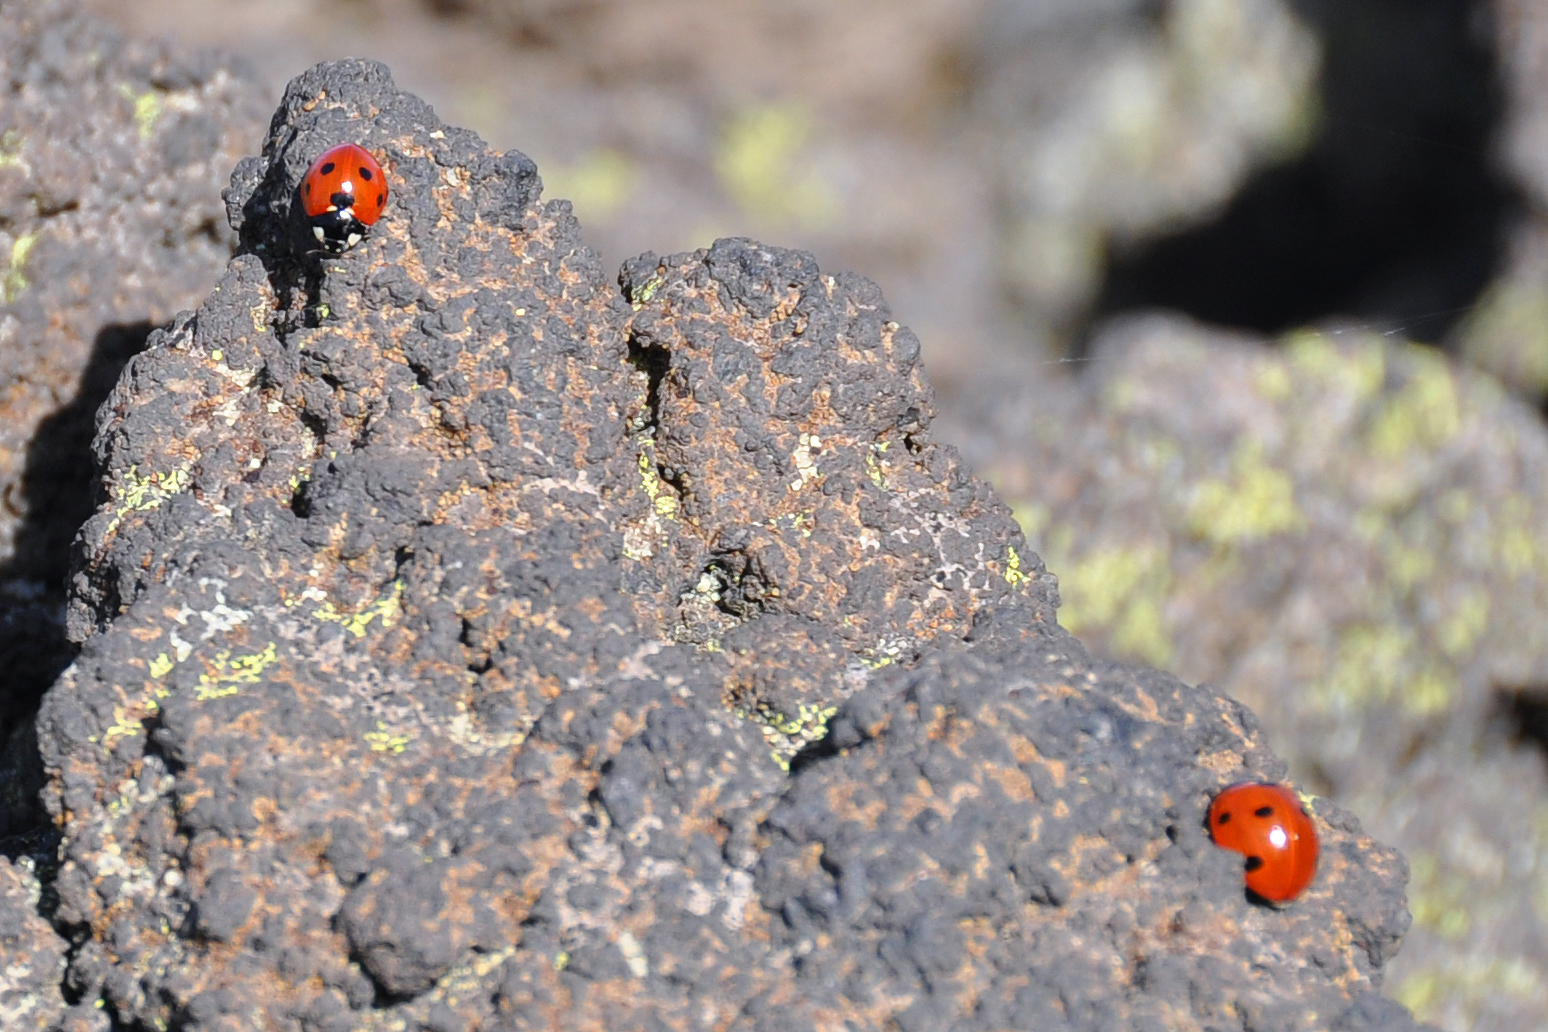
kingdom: Animalia
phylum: Arthropoda
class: Insecta
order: Coleoptera
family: Coccinellidae
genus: Coccinella
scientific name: Coccinella septempunctata
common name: Sevenspotted lady beetle
